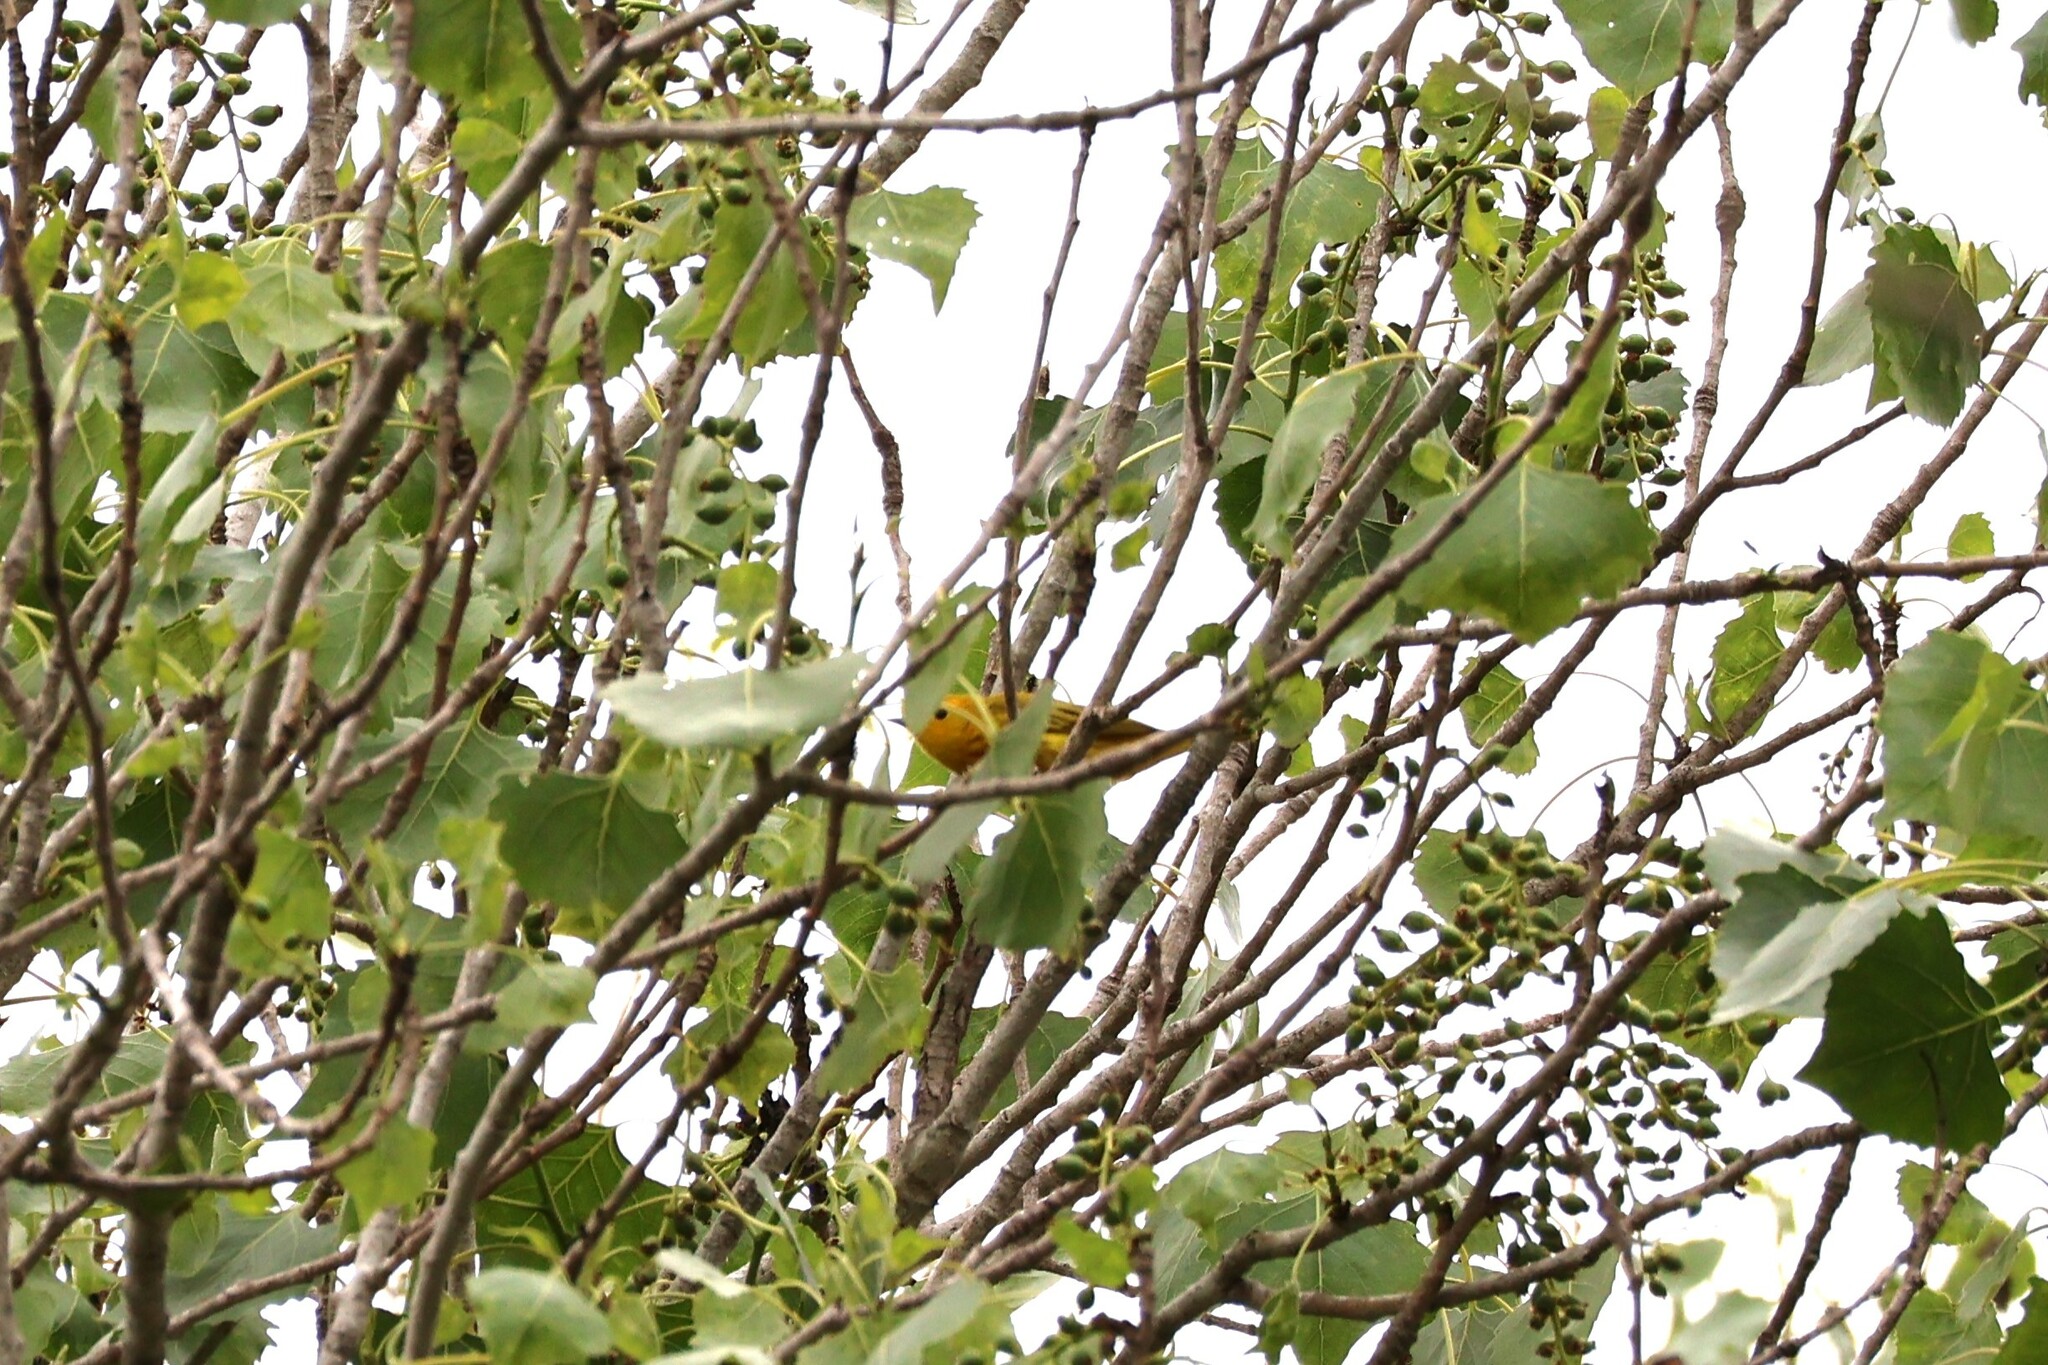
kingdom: Animalia
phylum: Chordata
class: Aves
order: Passeriformes
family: Parulidae
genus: Setophaga
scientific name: Setophaga petechia
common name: Yellow warbler
